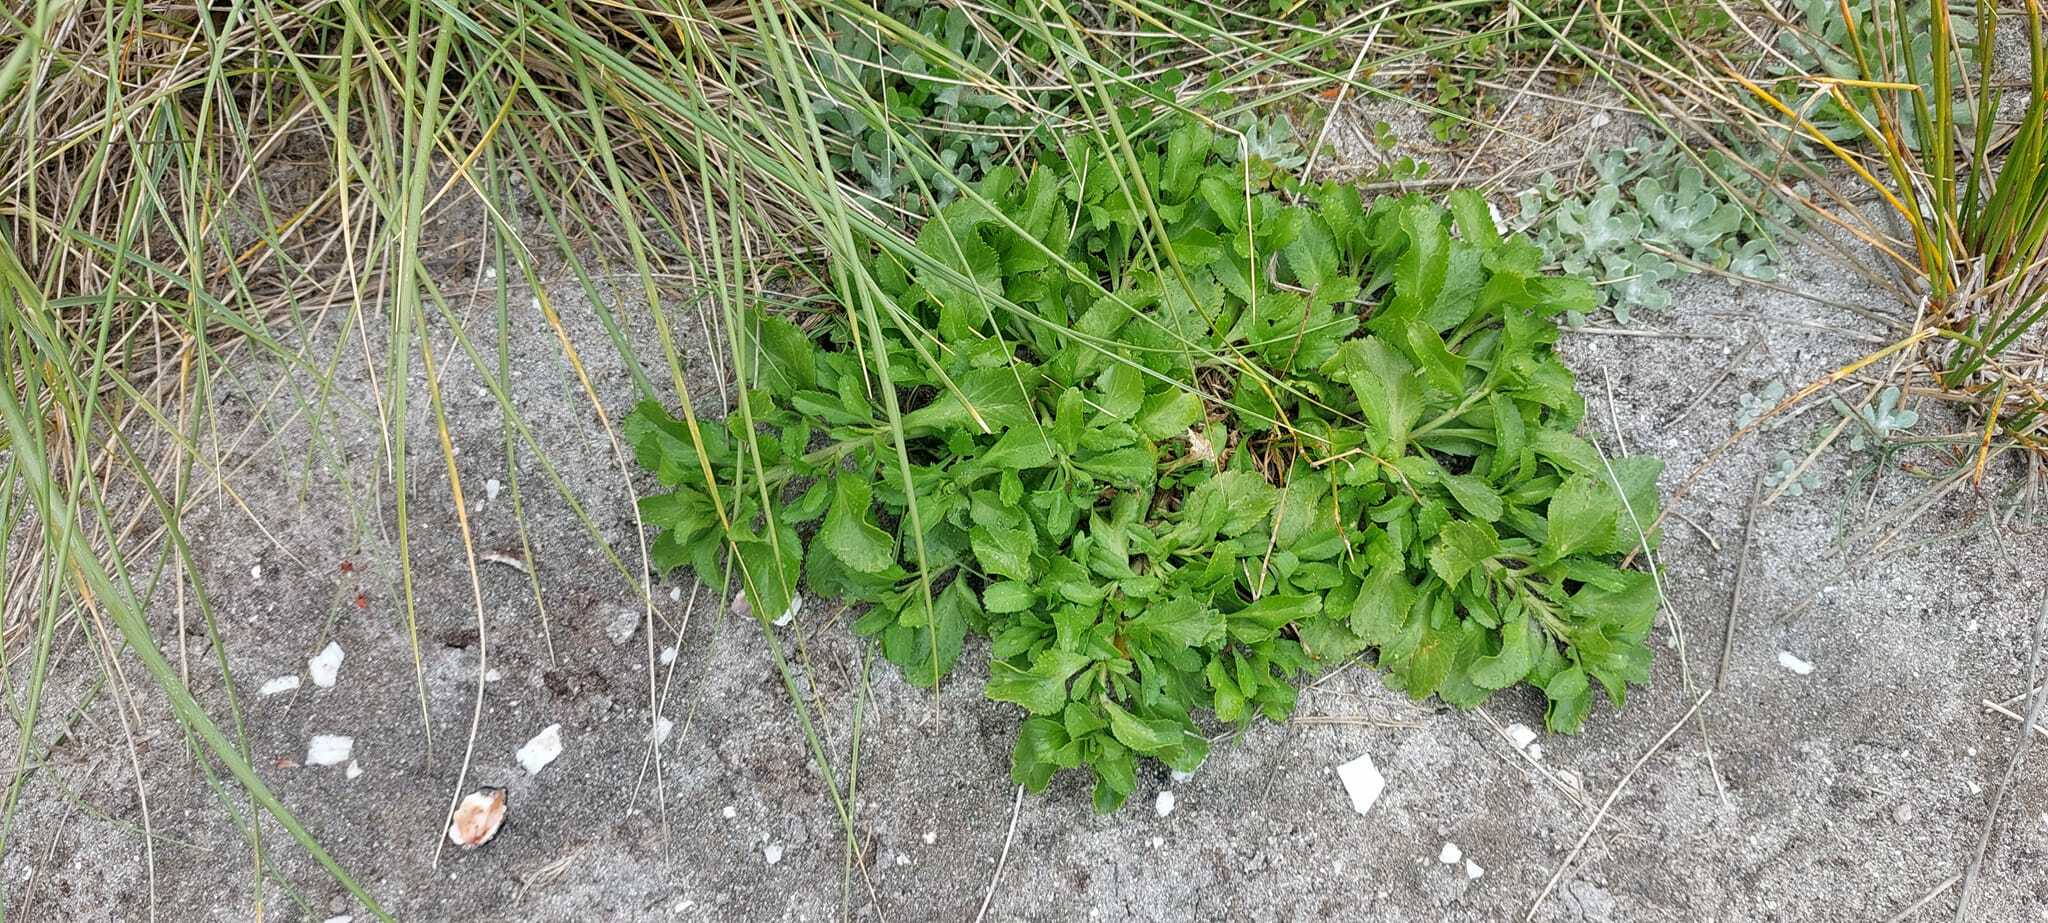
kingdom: Plantae
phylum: Tracheophyta
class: Magnoliopsida
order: Brassicales
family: Brassicaceae
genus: Lepidium
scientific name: Lepidium rekohuense
